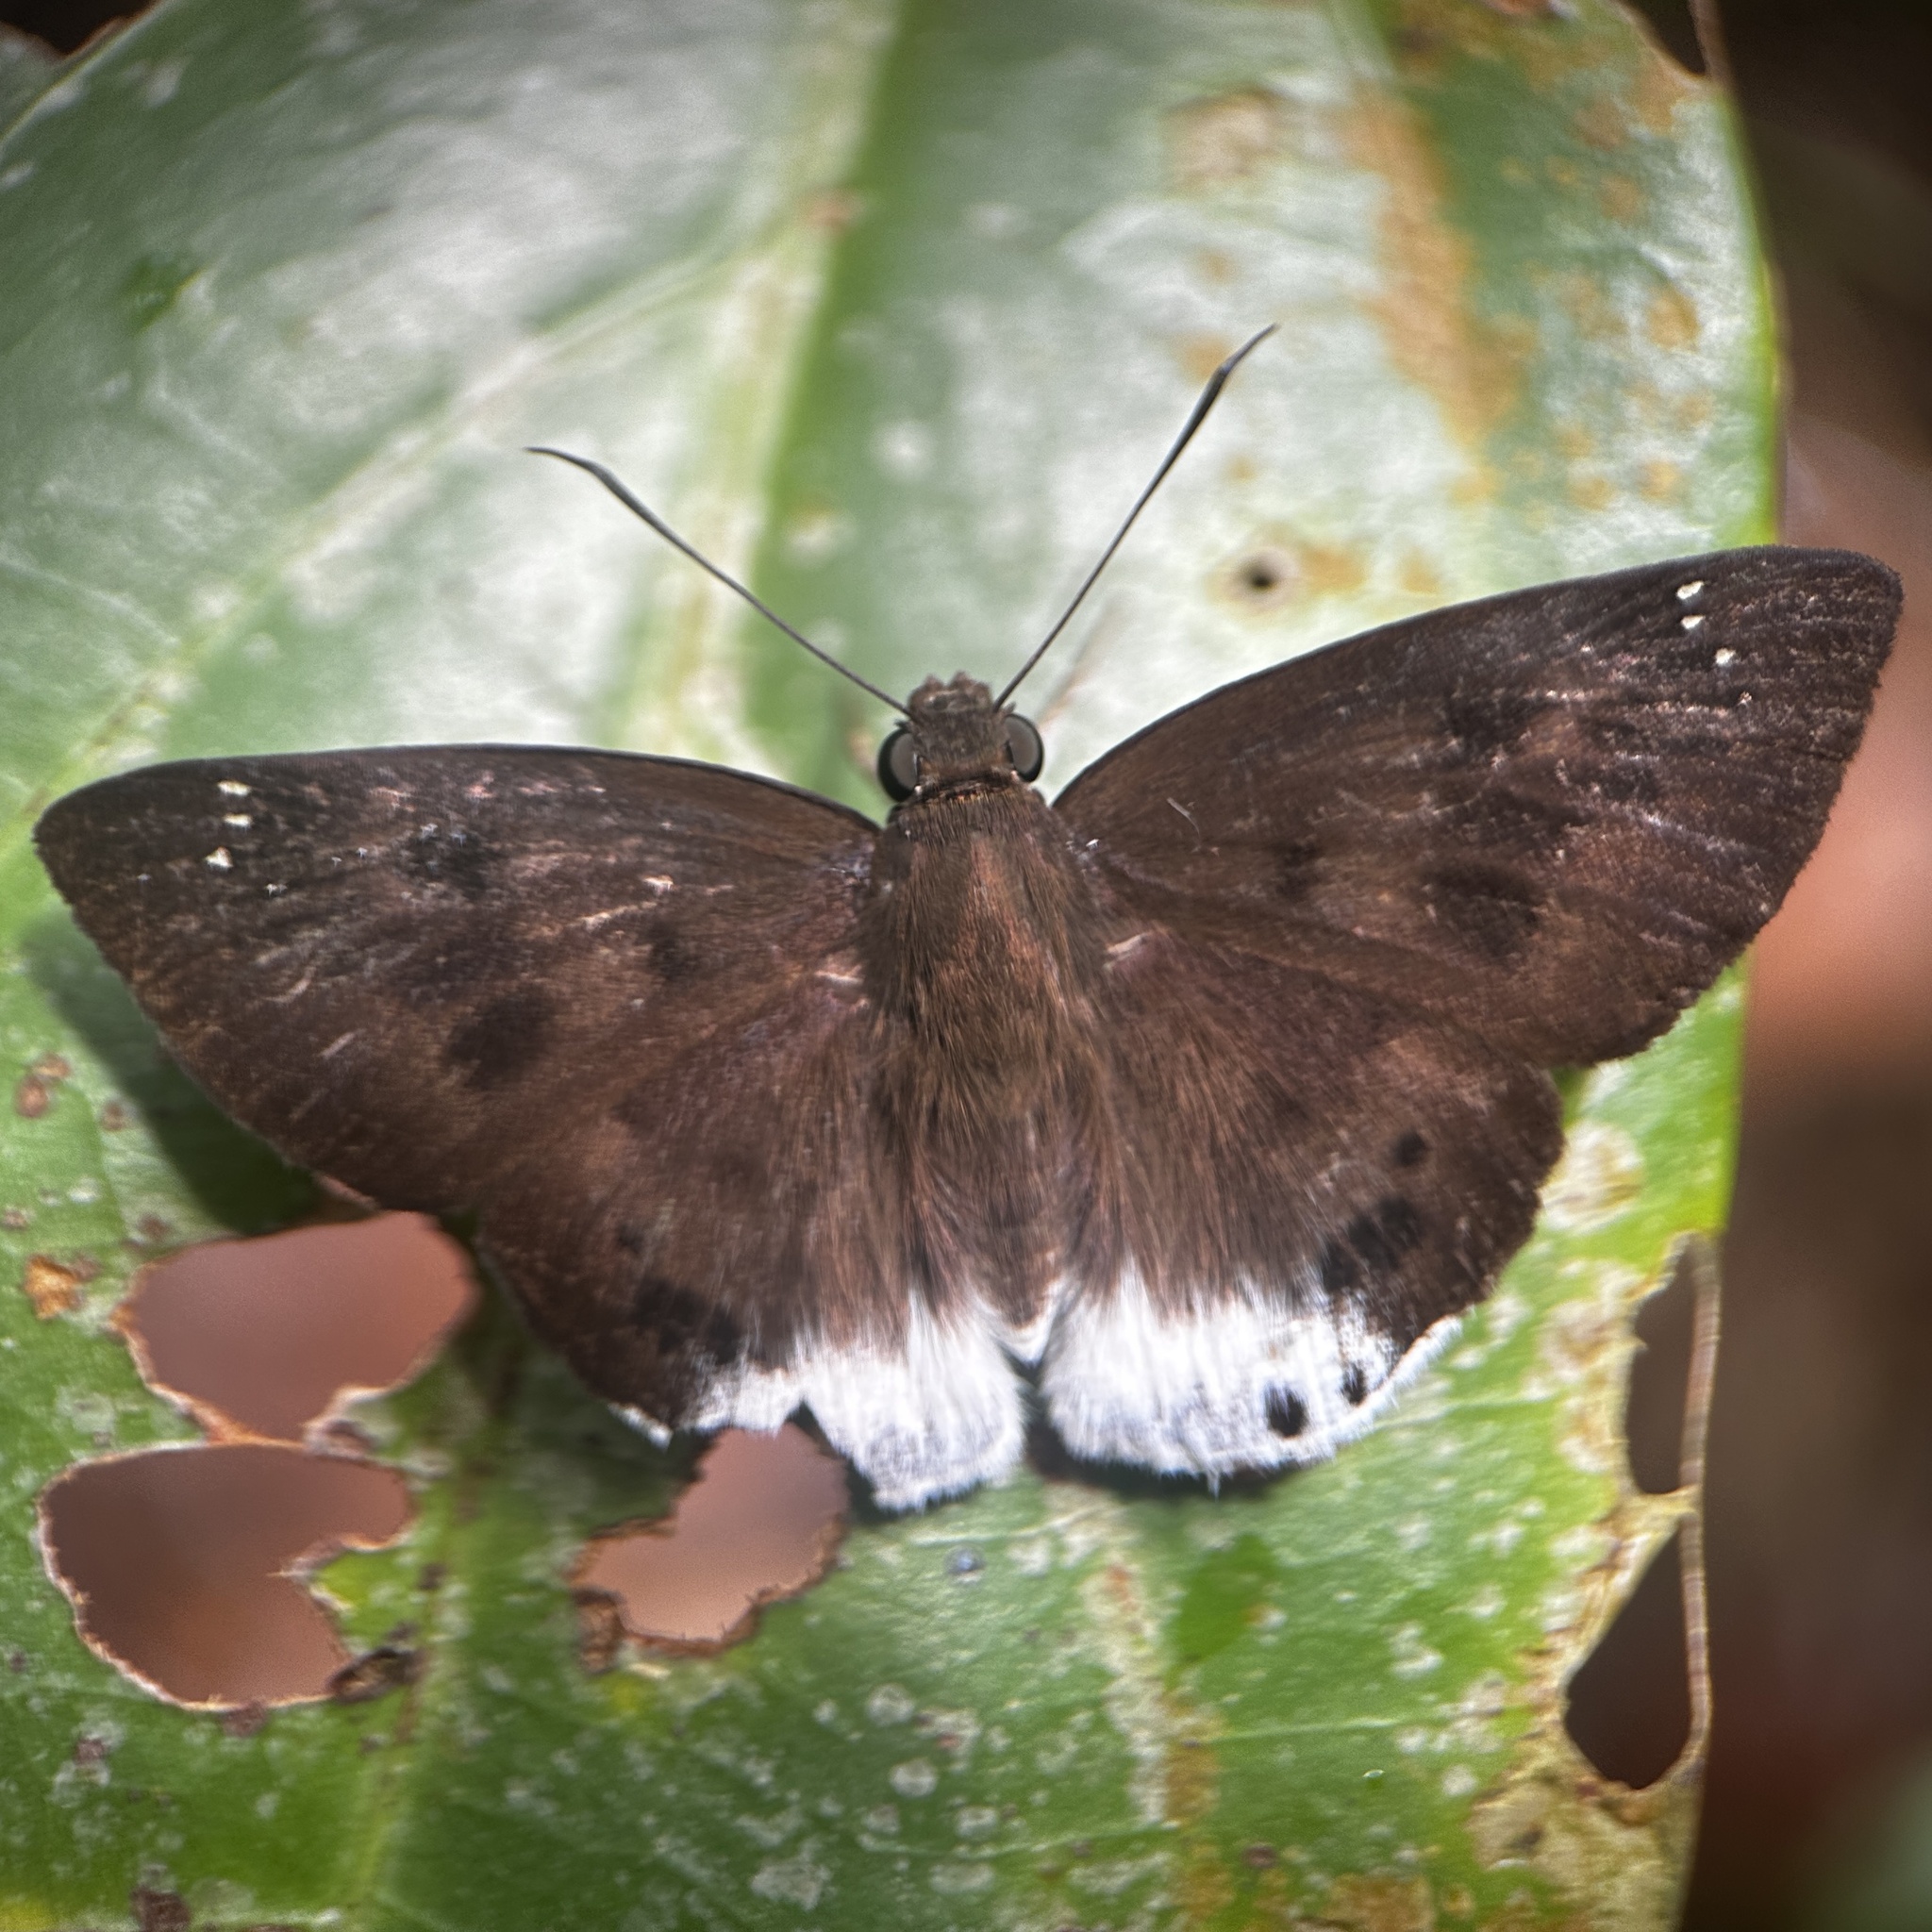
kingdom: Animalia
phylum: Arthropoda
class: Insecta
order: Lepidoptera
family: Hesperiidae
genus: Tagiades
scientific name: Tagiades gana
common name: Suffused snow flat
